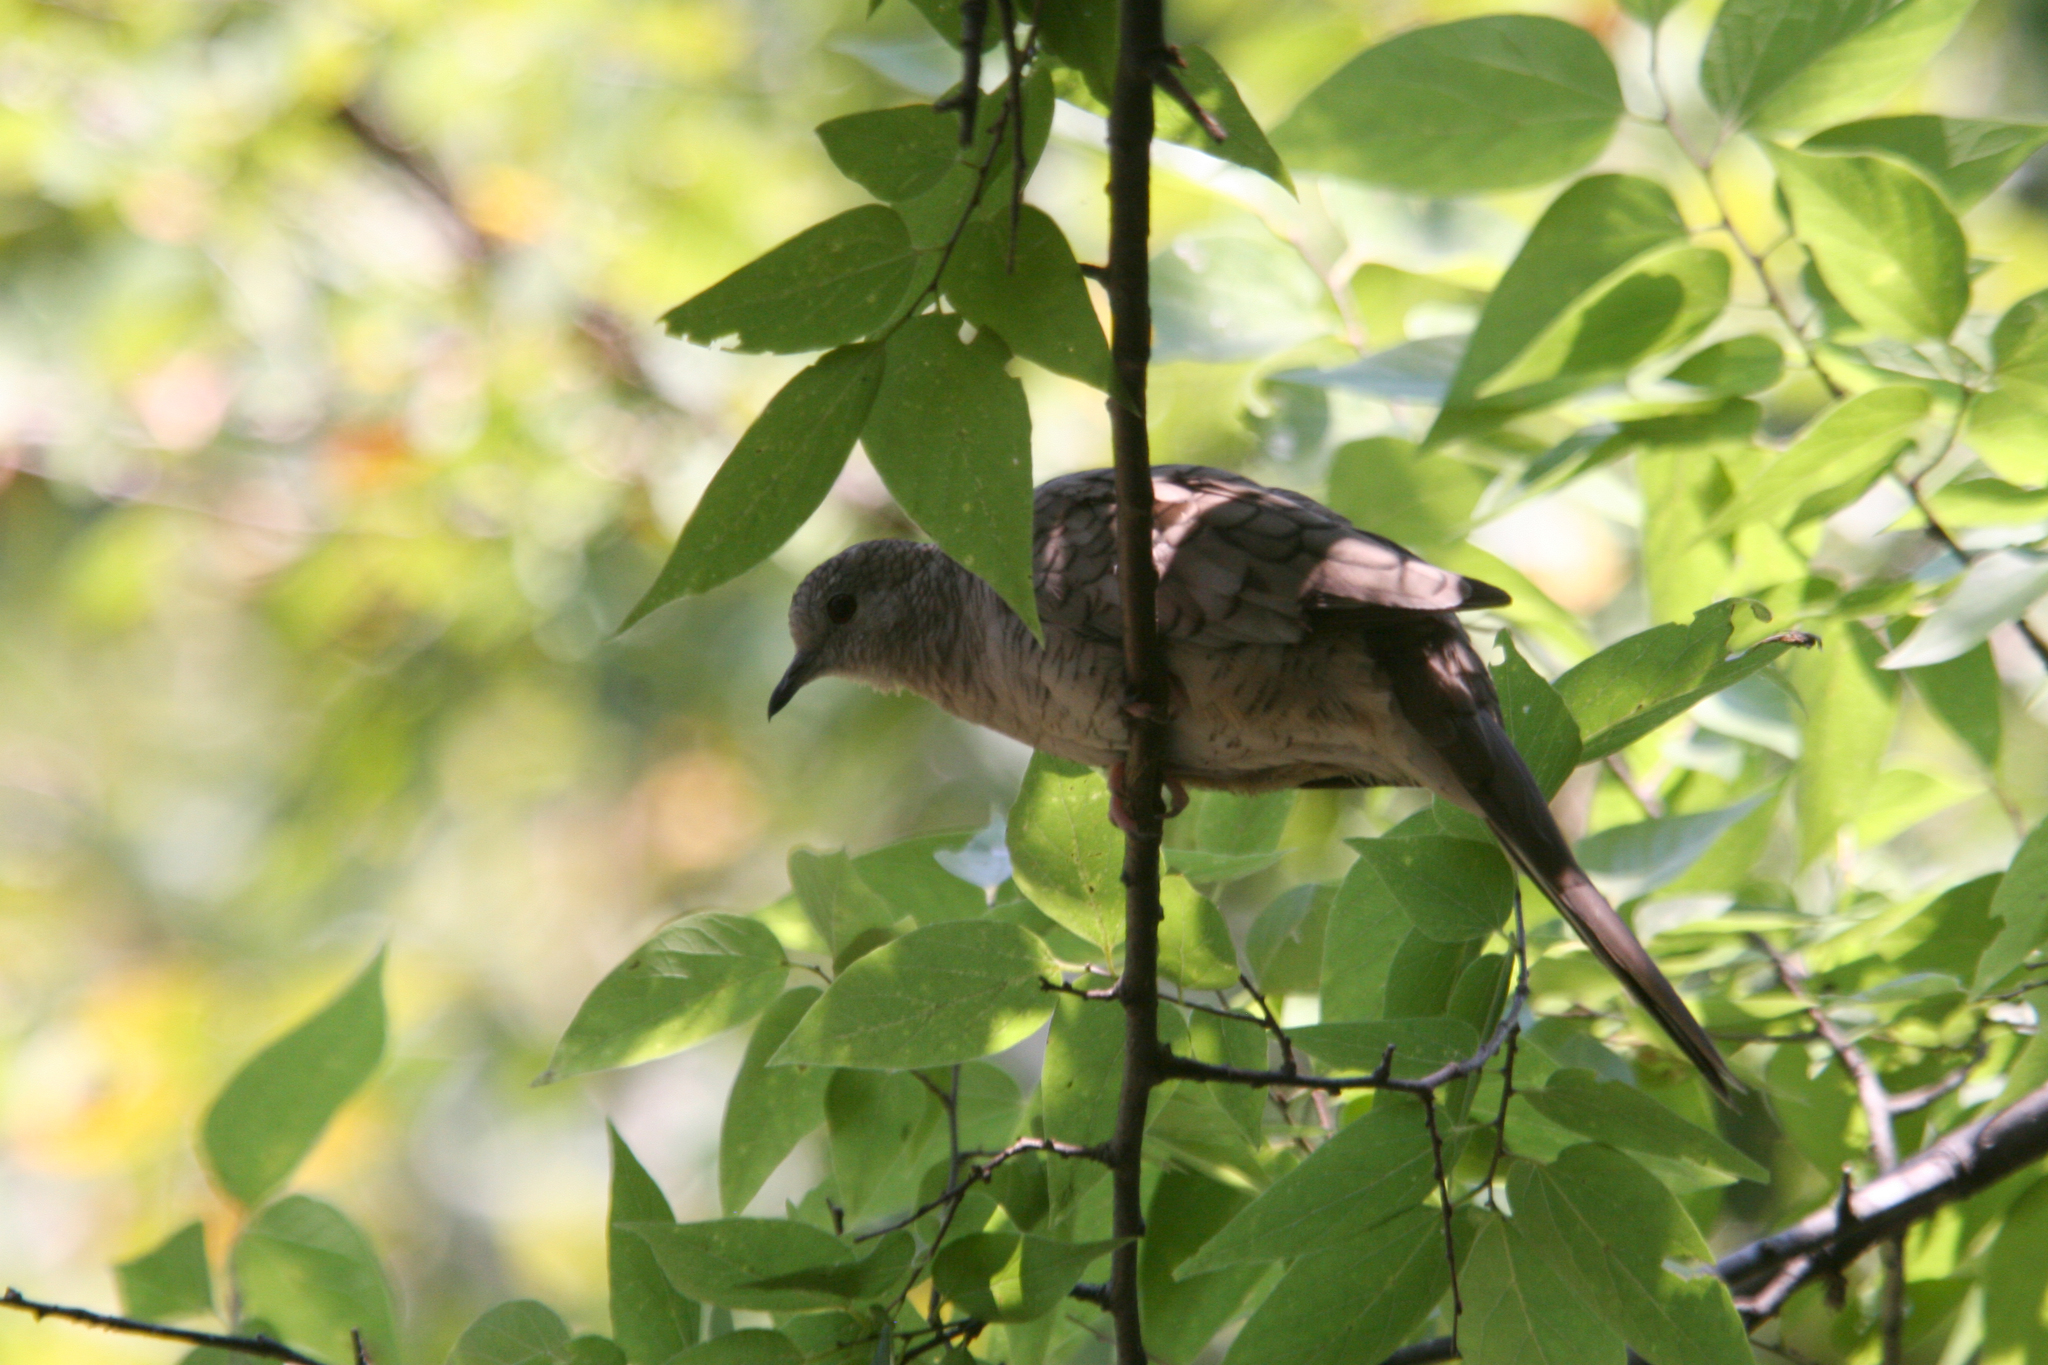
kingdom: Animalia
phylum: Chordata
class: Aves
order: Columbiformes
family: Columbidae
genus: Columbina
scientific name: Columbina inca
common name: Inca dove
